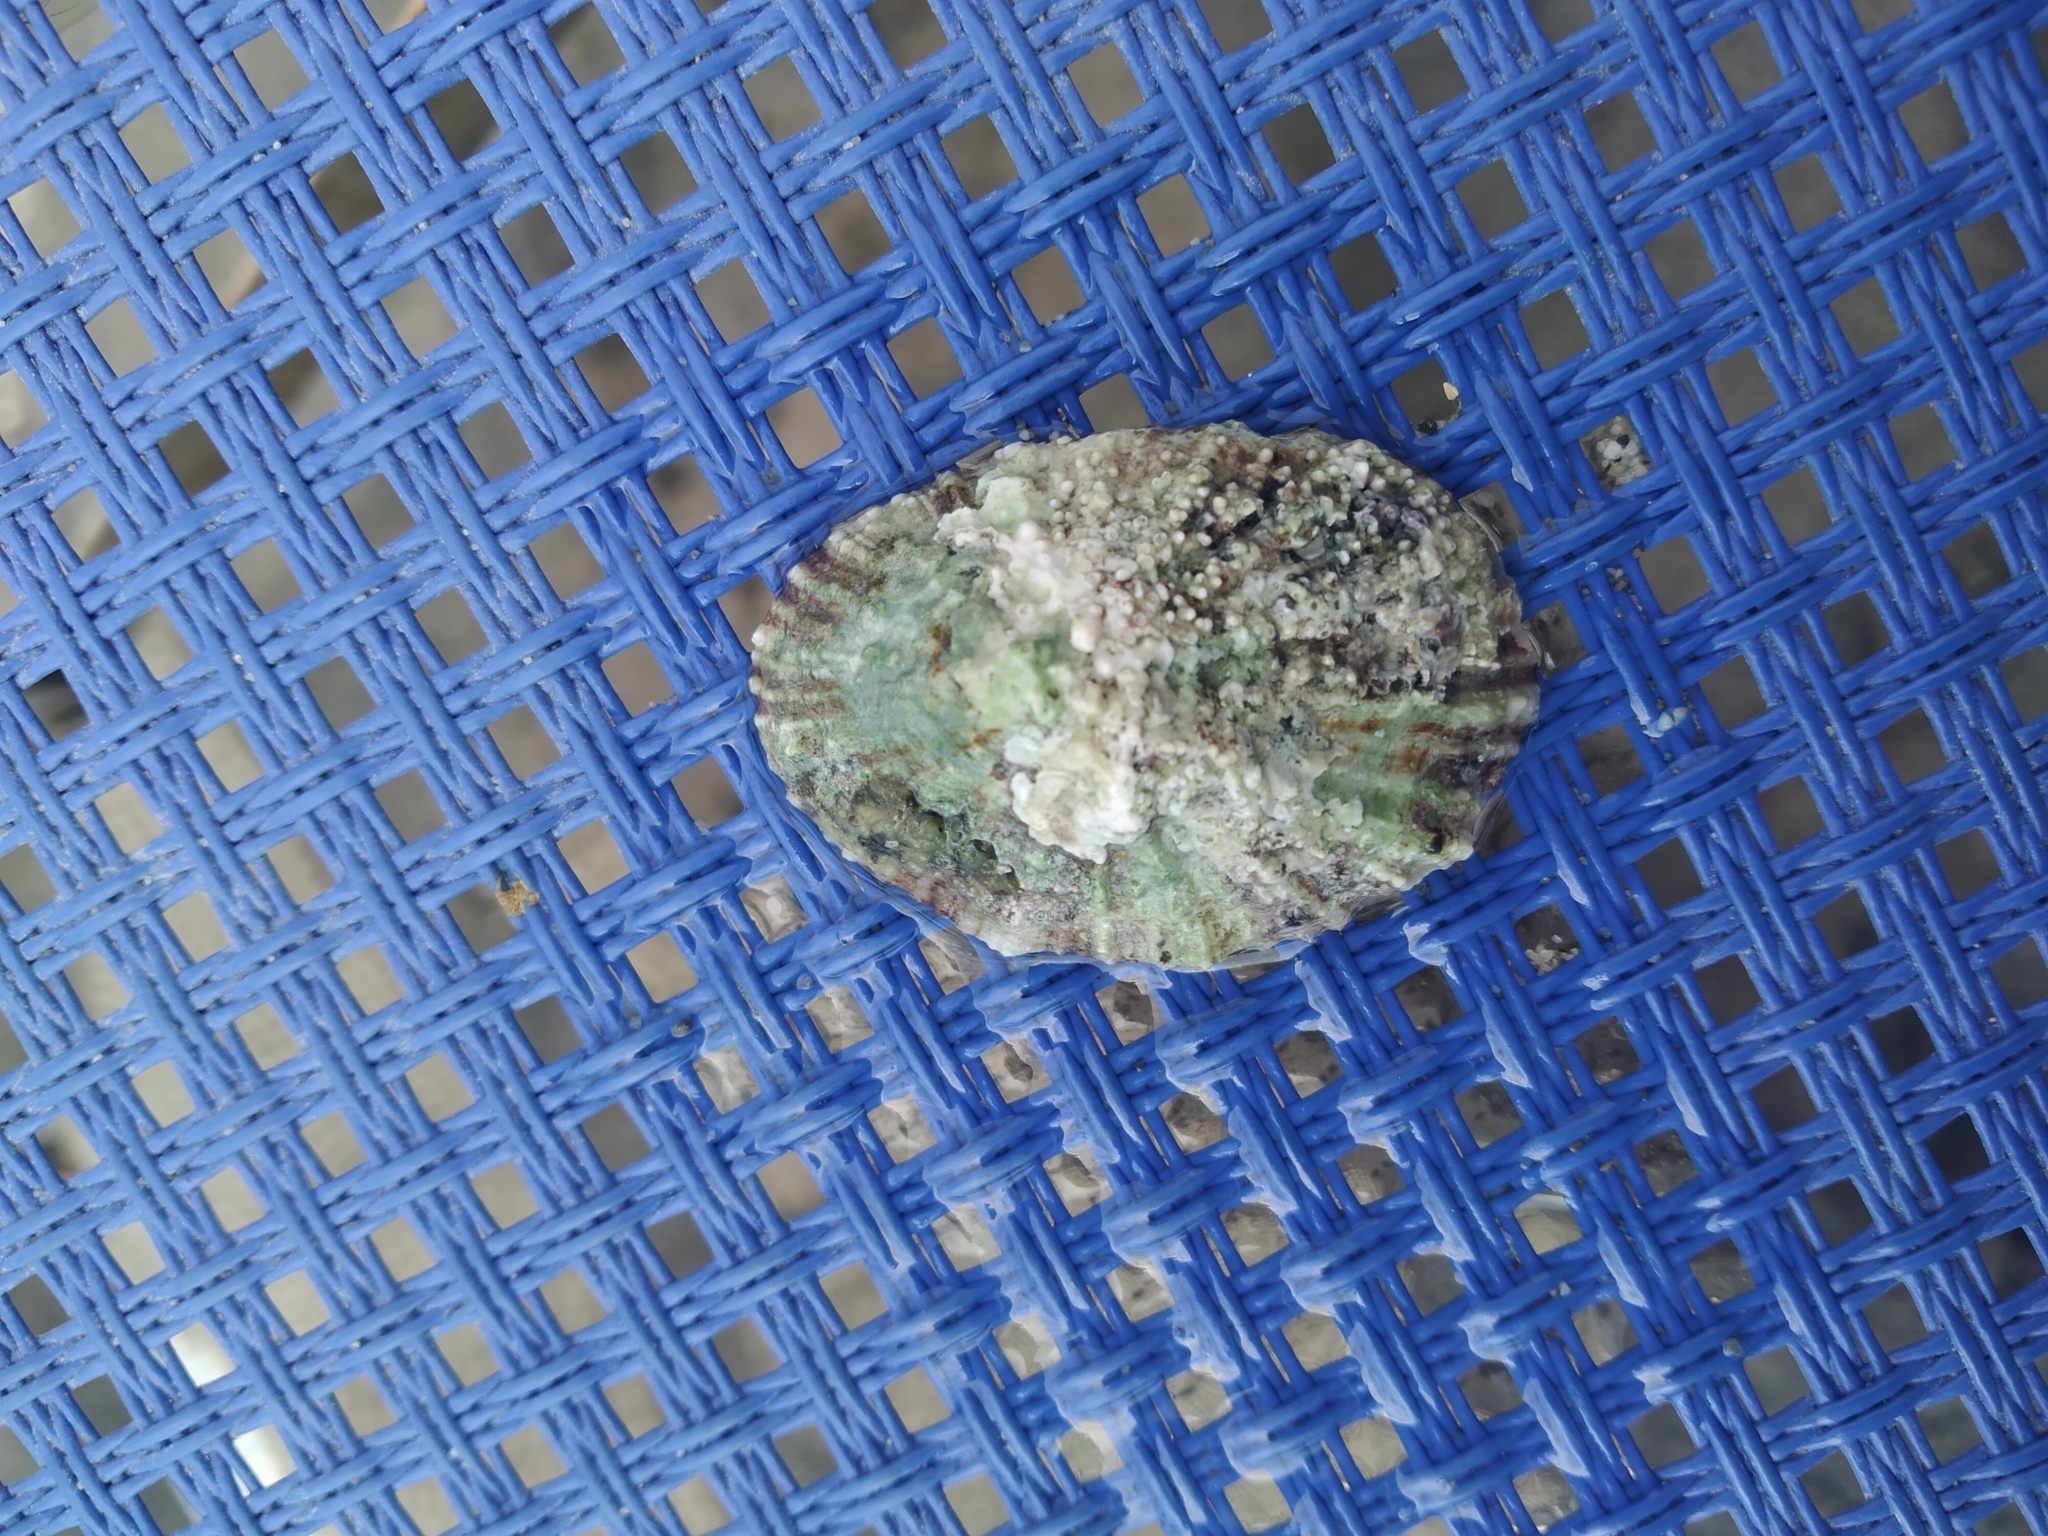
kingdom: Animalia
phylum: Mollusca
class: Gastropoda
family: Patellidae
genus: Patella
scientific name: Patella caerulea
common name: Mediterranean limpet
